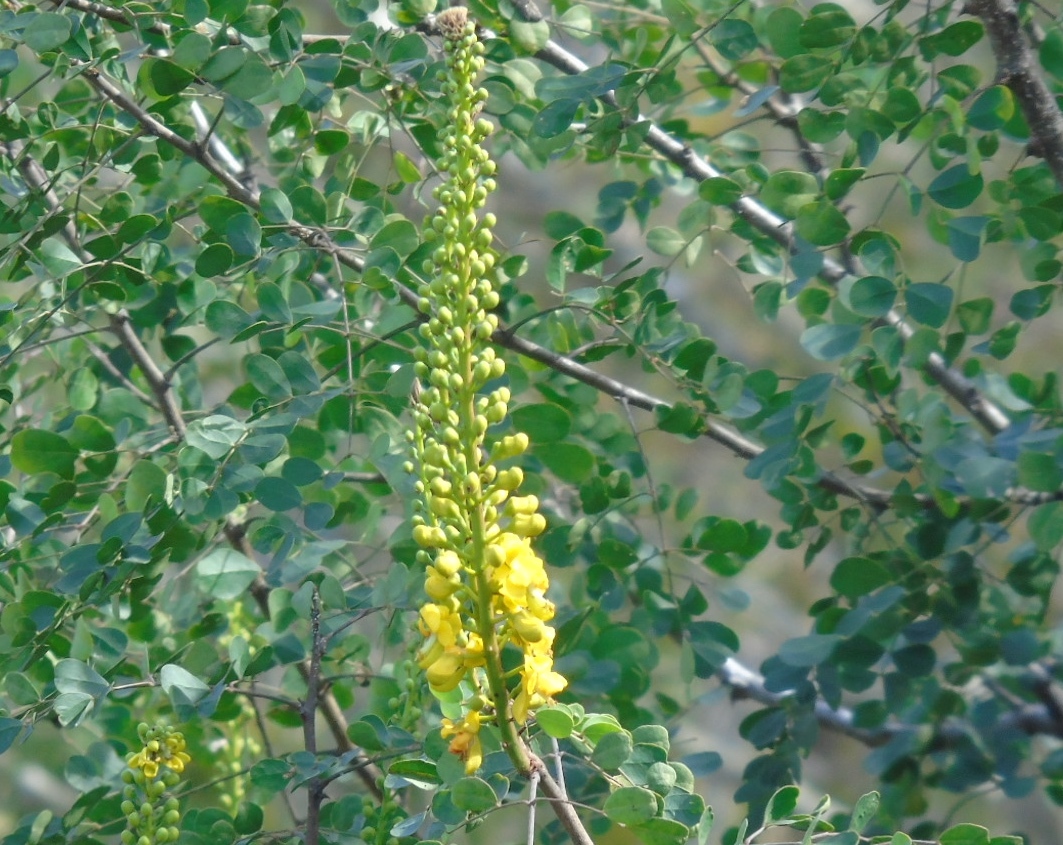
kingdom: Plantae
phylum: Tracheophyta
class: Magnoliopsida
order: Fabales
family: Fabaceae
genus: Tara
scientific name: Tara cacalaco
